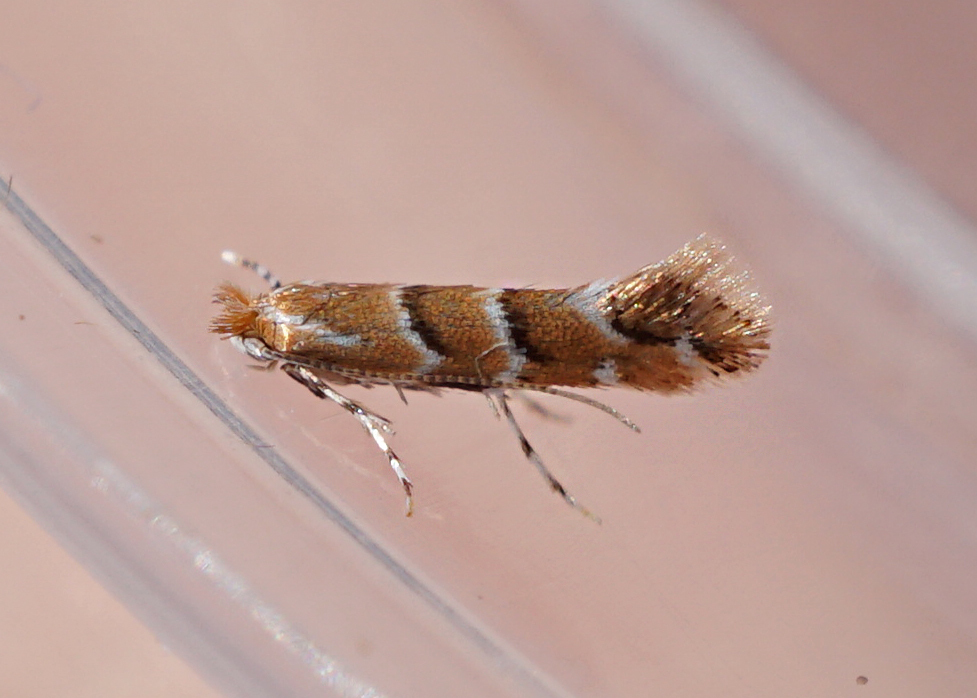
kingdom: Animalia
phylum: Arthropoda
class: Insecta
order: Lepidoptera
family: Gracillariidae
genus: Cameraria
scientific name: Cameraria ohridella
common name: Horse-chestnut leaf-miner
